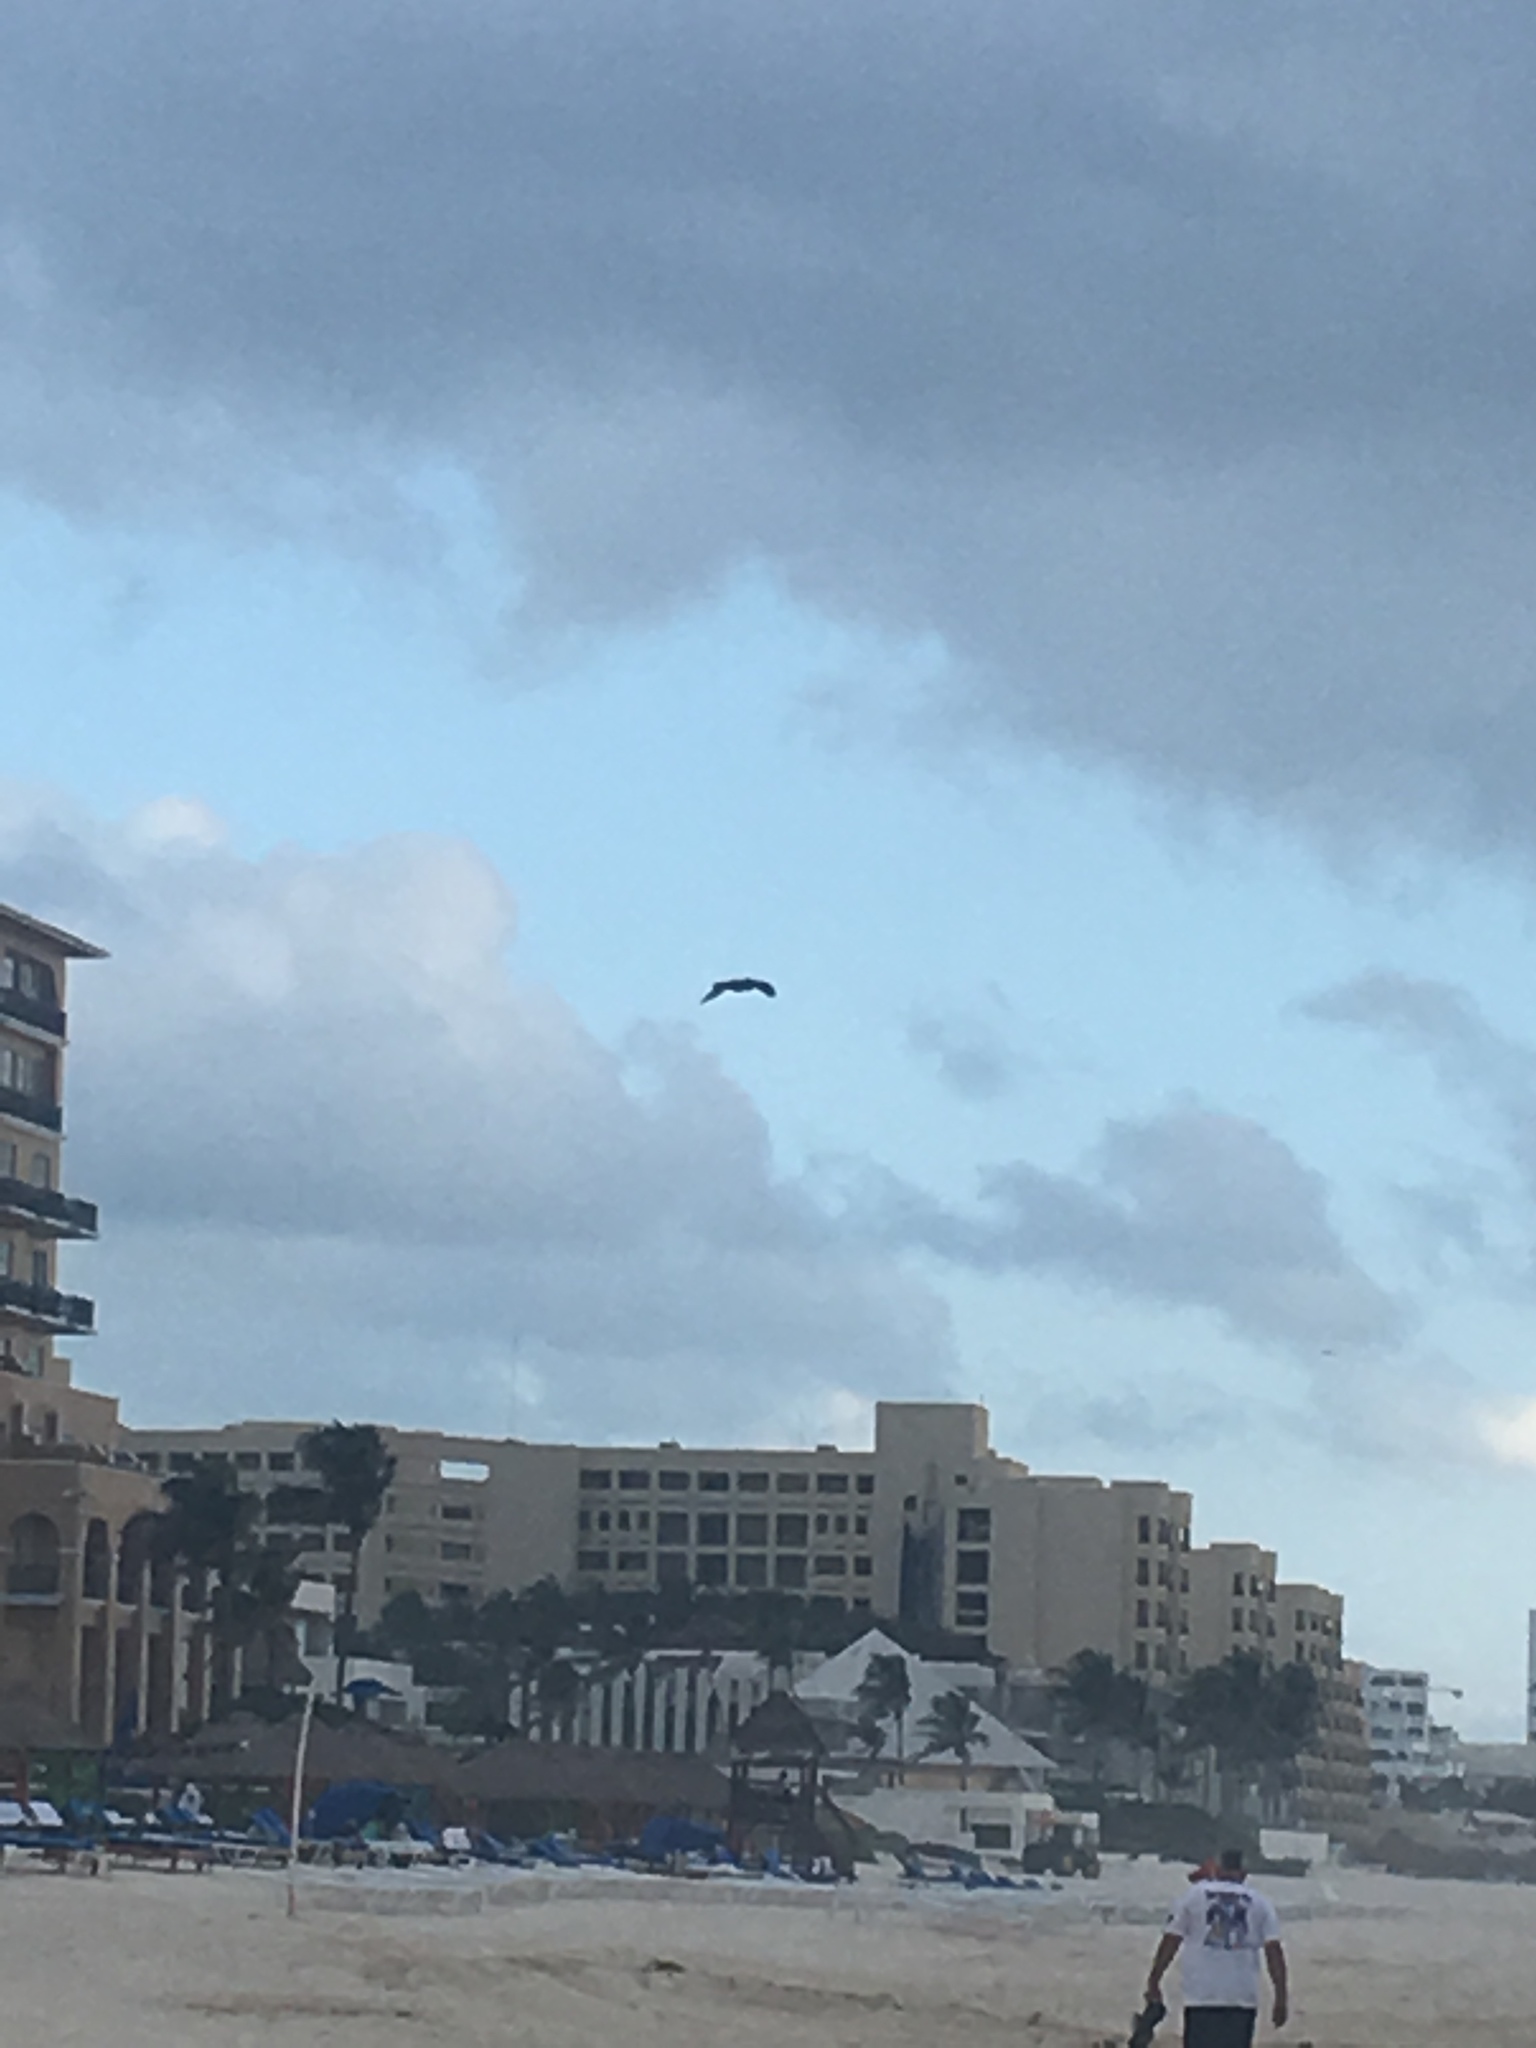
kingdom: Animalia
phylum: Chordata
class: Aves
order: Pelecaniformes
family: Pelecanidae
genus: Pelecanus
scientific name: Pelecanus occidentalis
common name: Brown pelican
